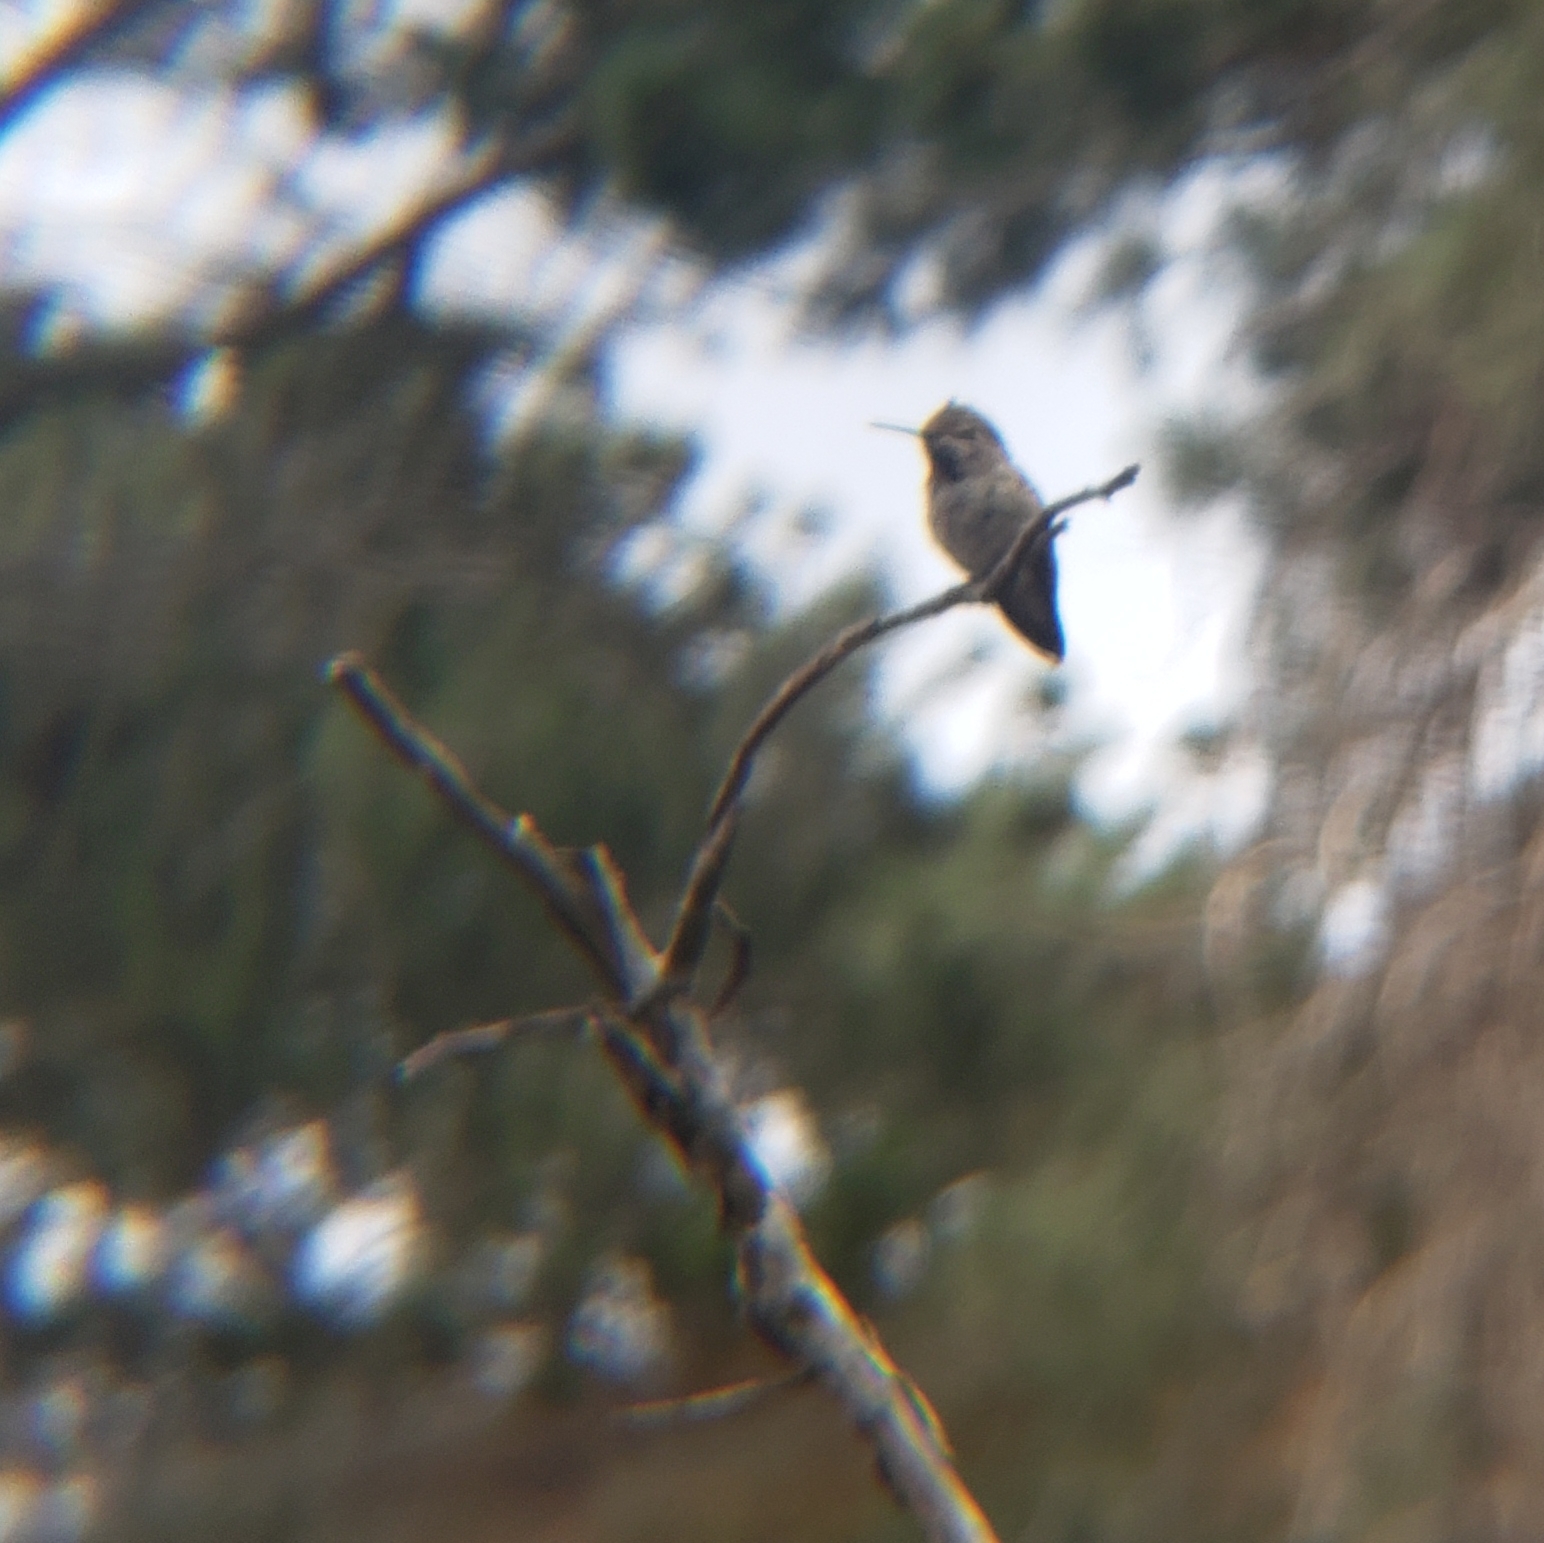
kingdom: Animalia
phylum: Chordata
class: Aves
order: Apodiformes
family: Trochilidae
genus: Calypte
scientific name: Calypte anna
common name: Anna's hummingbird
